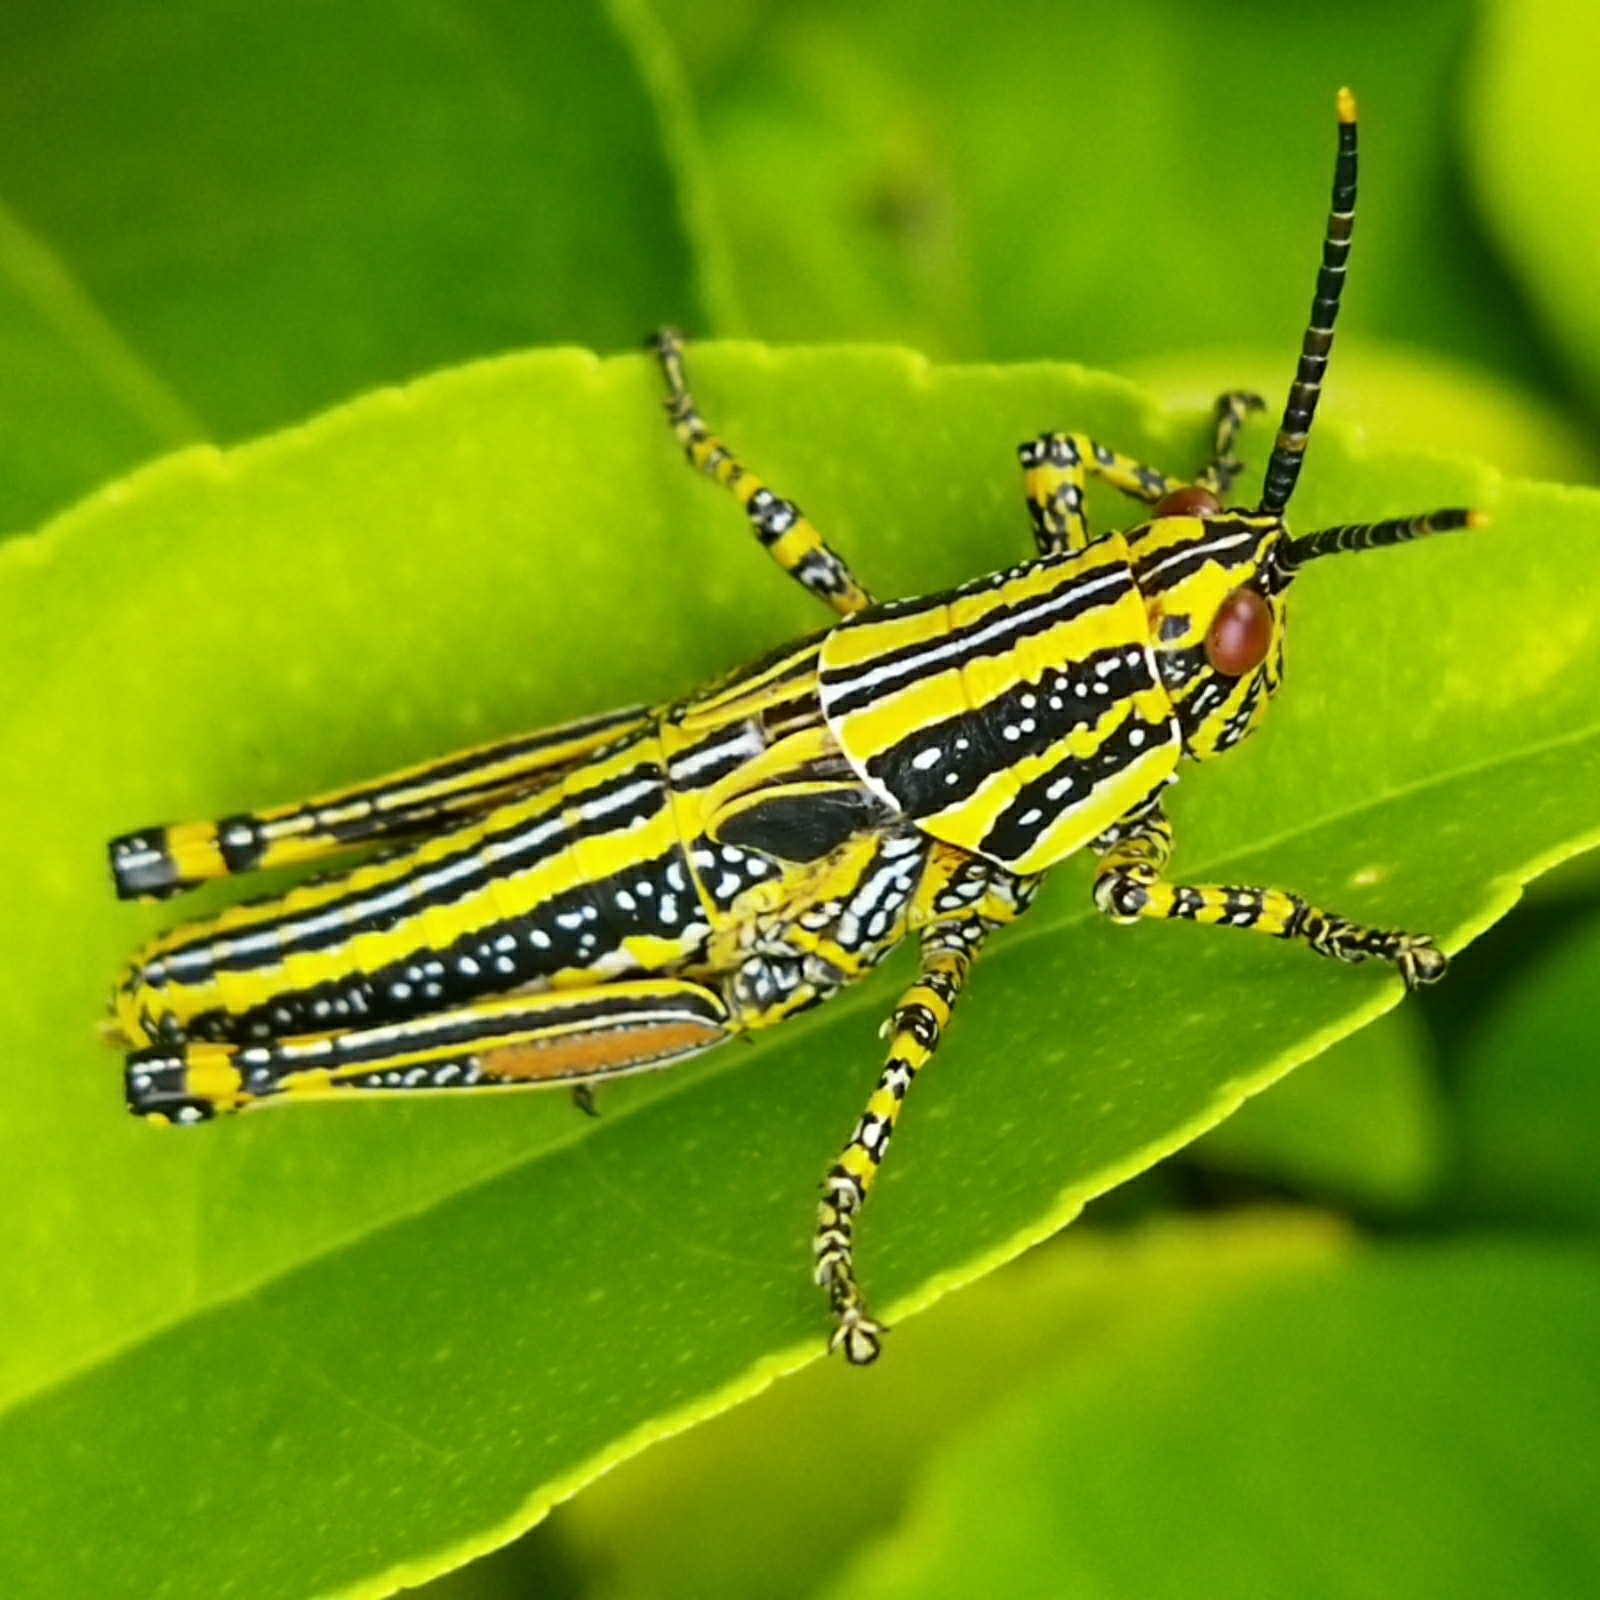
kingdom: Animalia
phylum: Arthropoda
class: Insecta
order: Orthoptera
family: Pyrgomorphidae
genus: Zonocerus
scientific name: Zonocerus elegans
